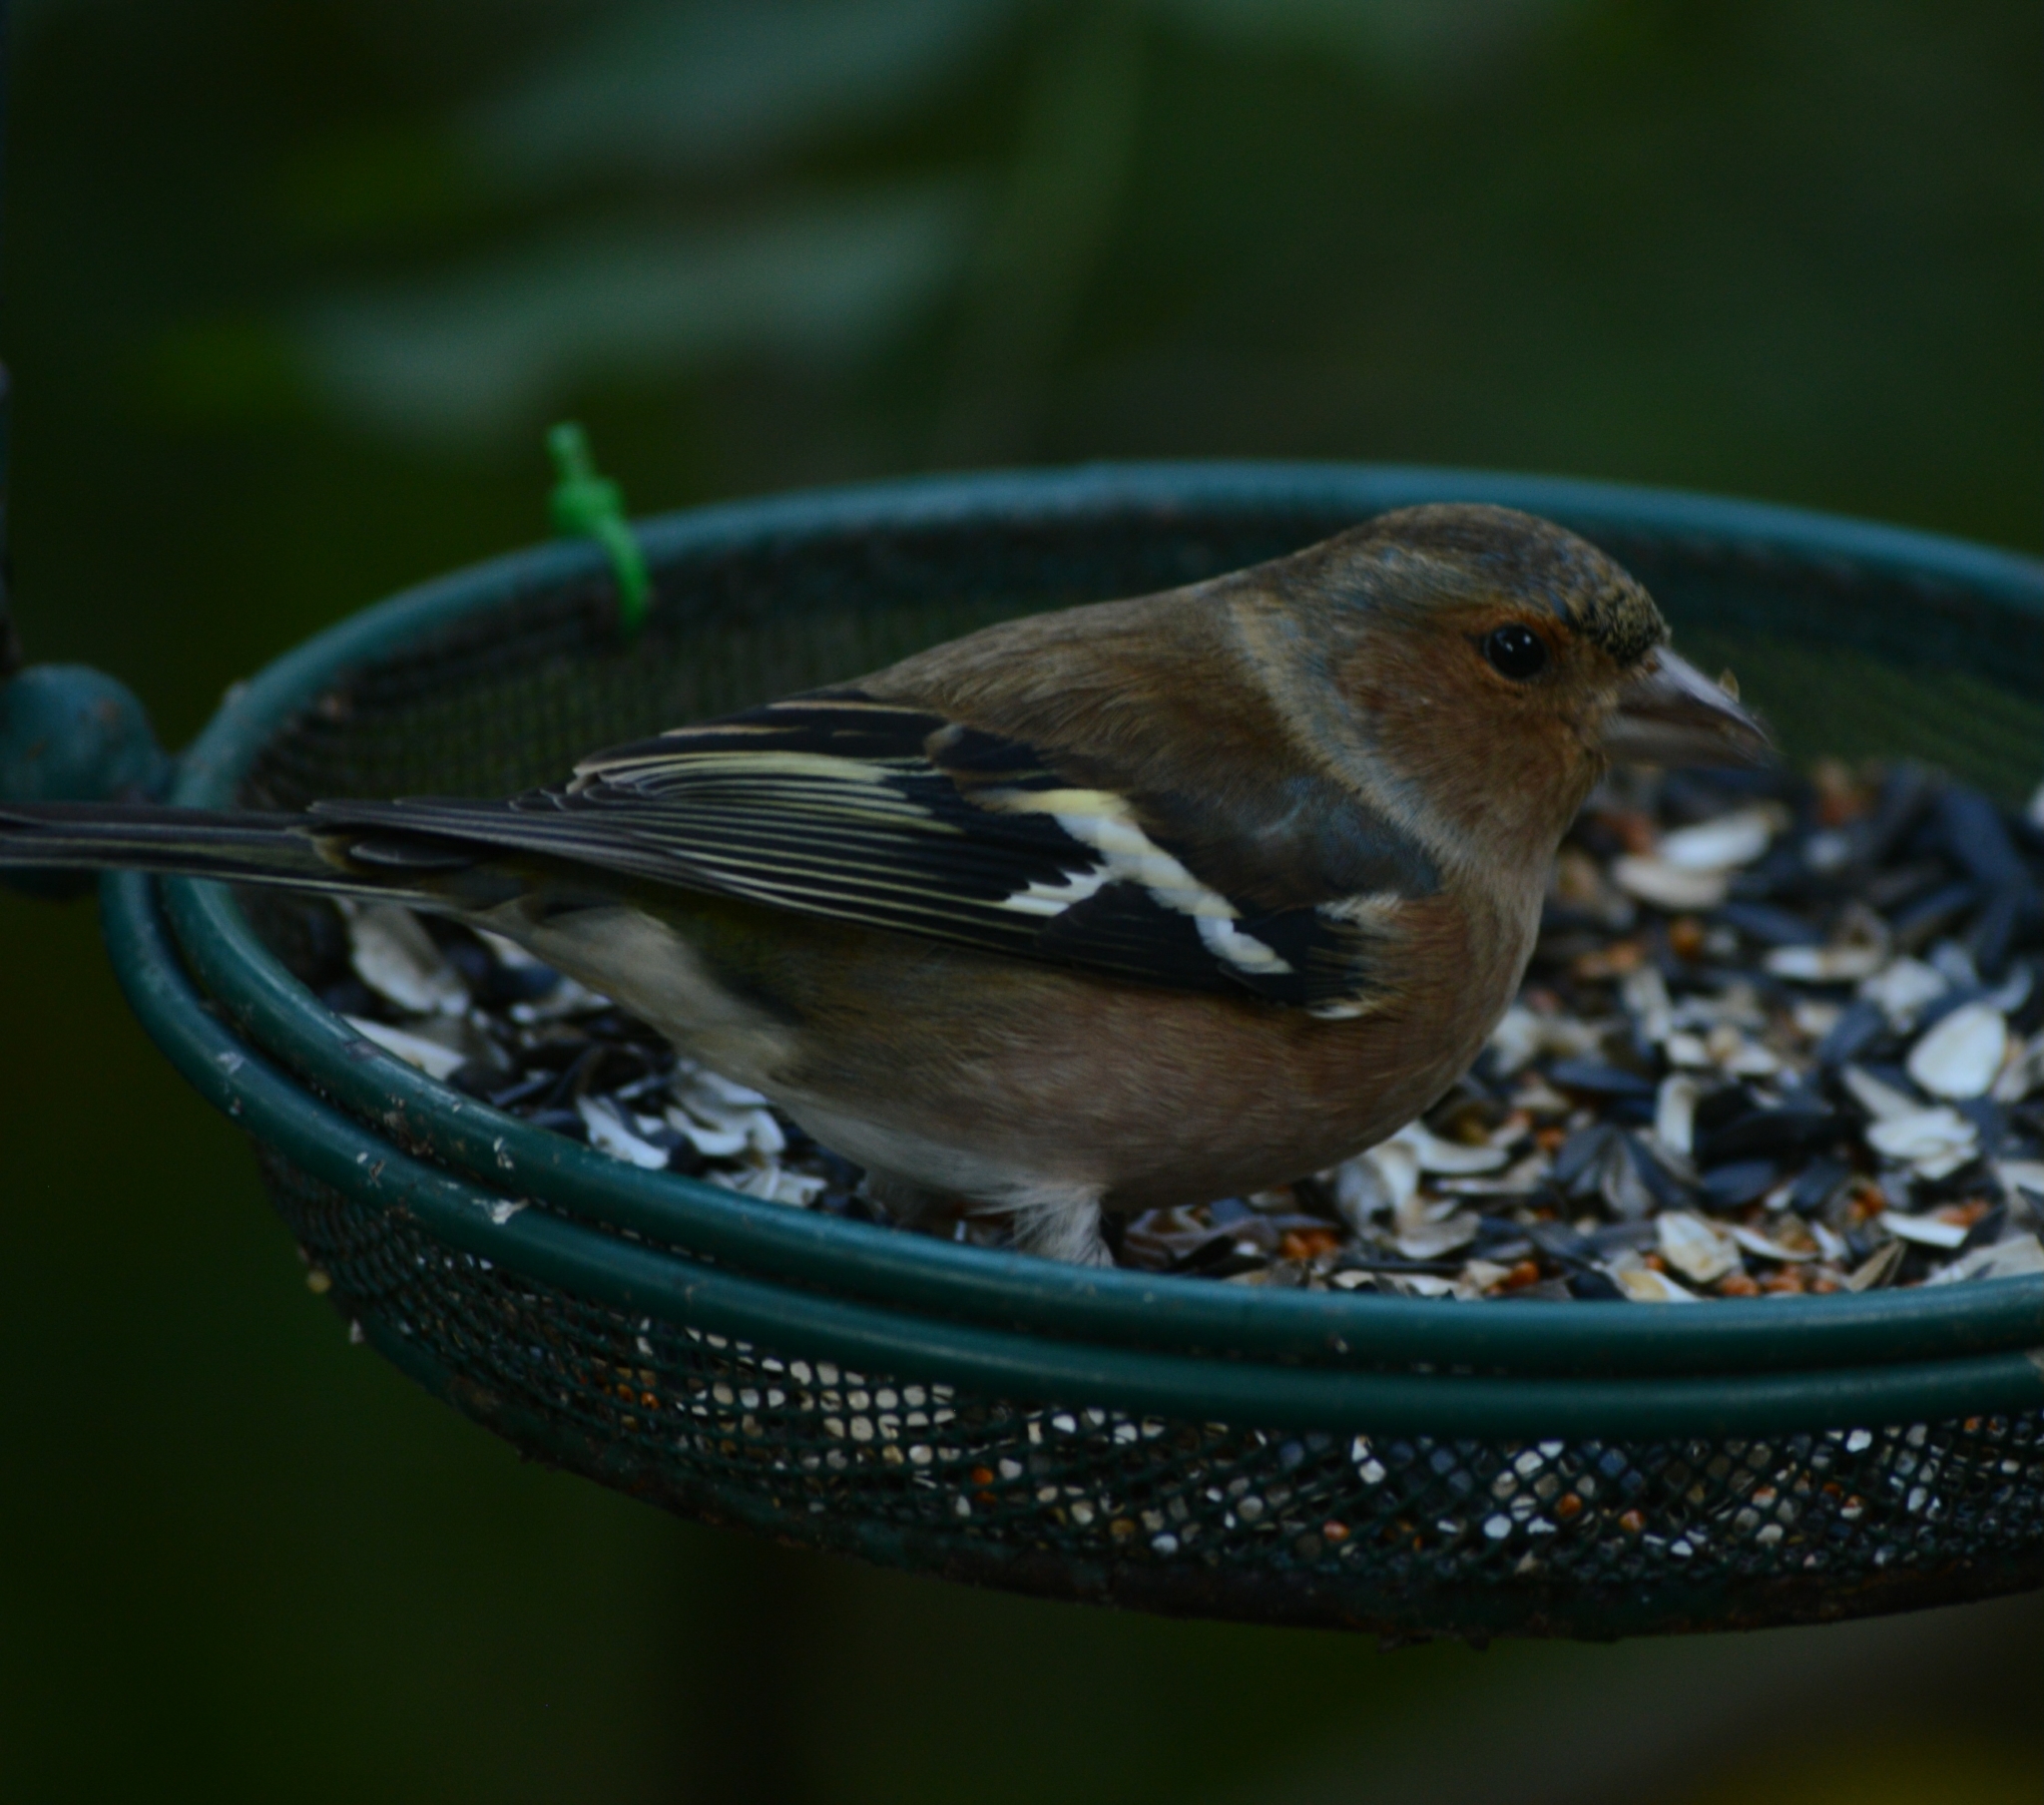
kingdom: Animalia
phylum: Chordata
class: Aves
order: Passeriformes
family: Fringillidae
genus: Fringilla
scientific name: Fringilla coelebs
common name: Common chaffinch
